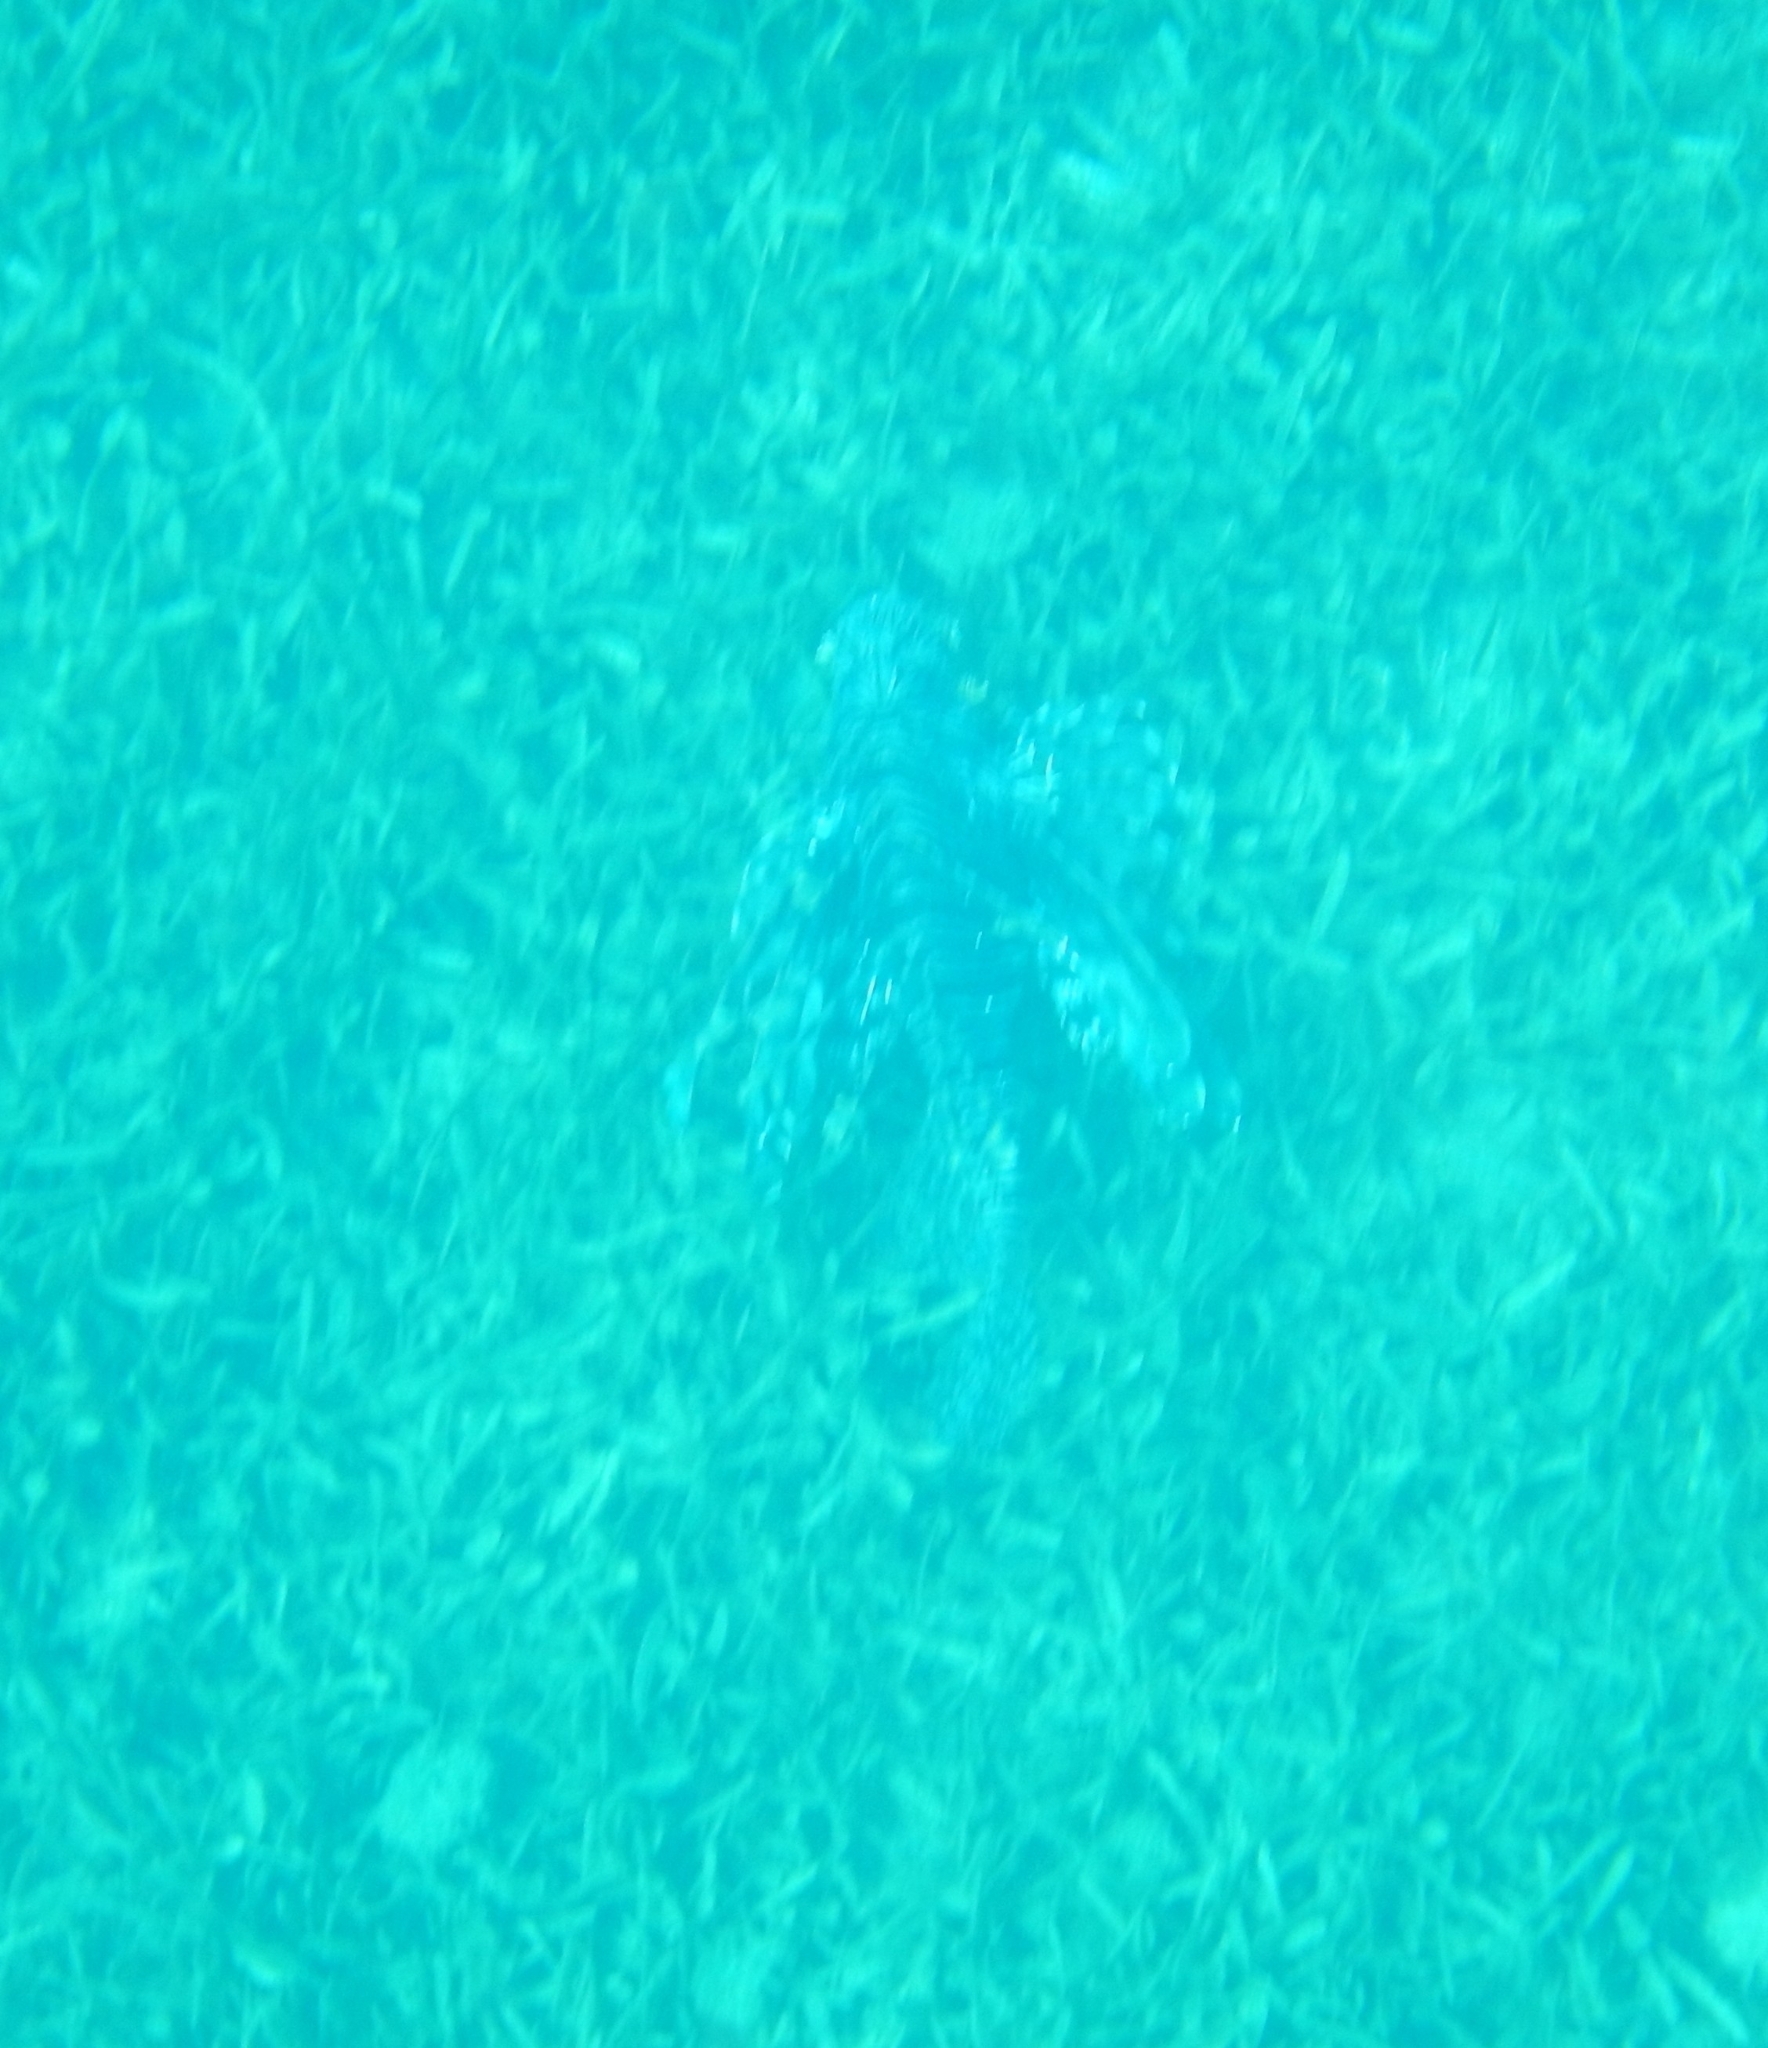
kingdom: Animalia
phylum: Chordata
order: Scorpaeniformes
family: Scorpaenidae
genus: Pterois
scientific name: Pterois volitans
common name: Lionfish
